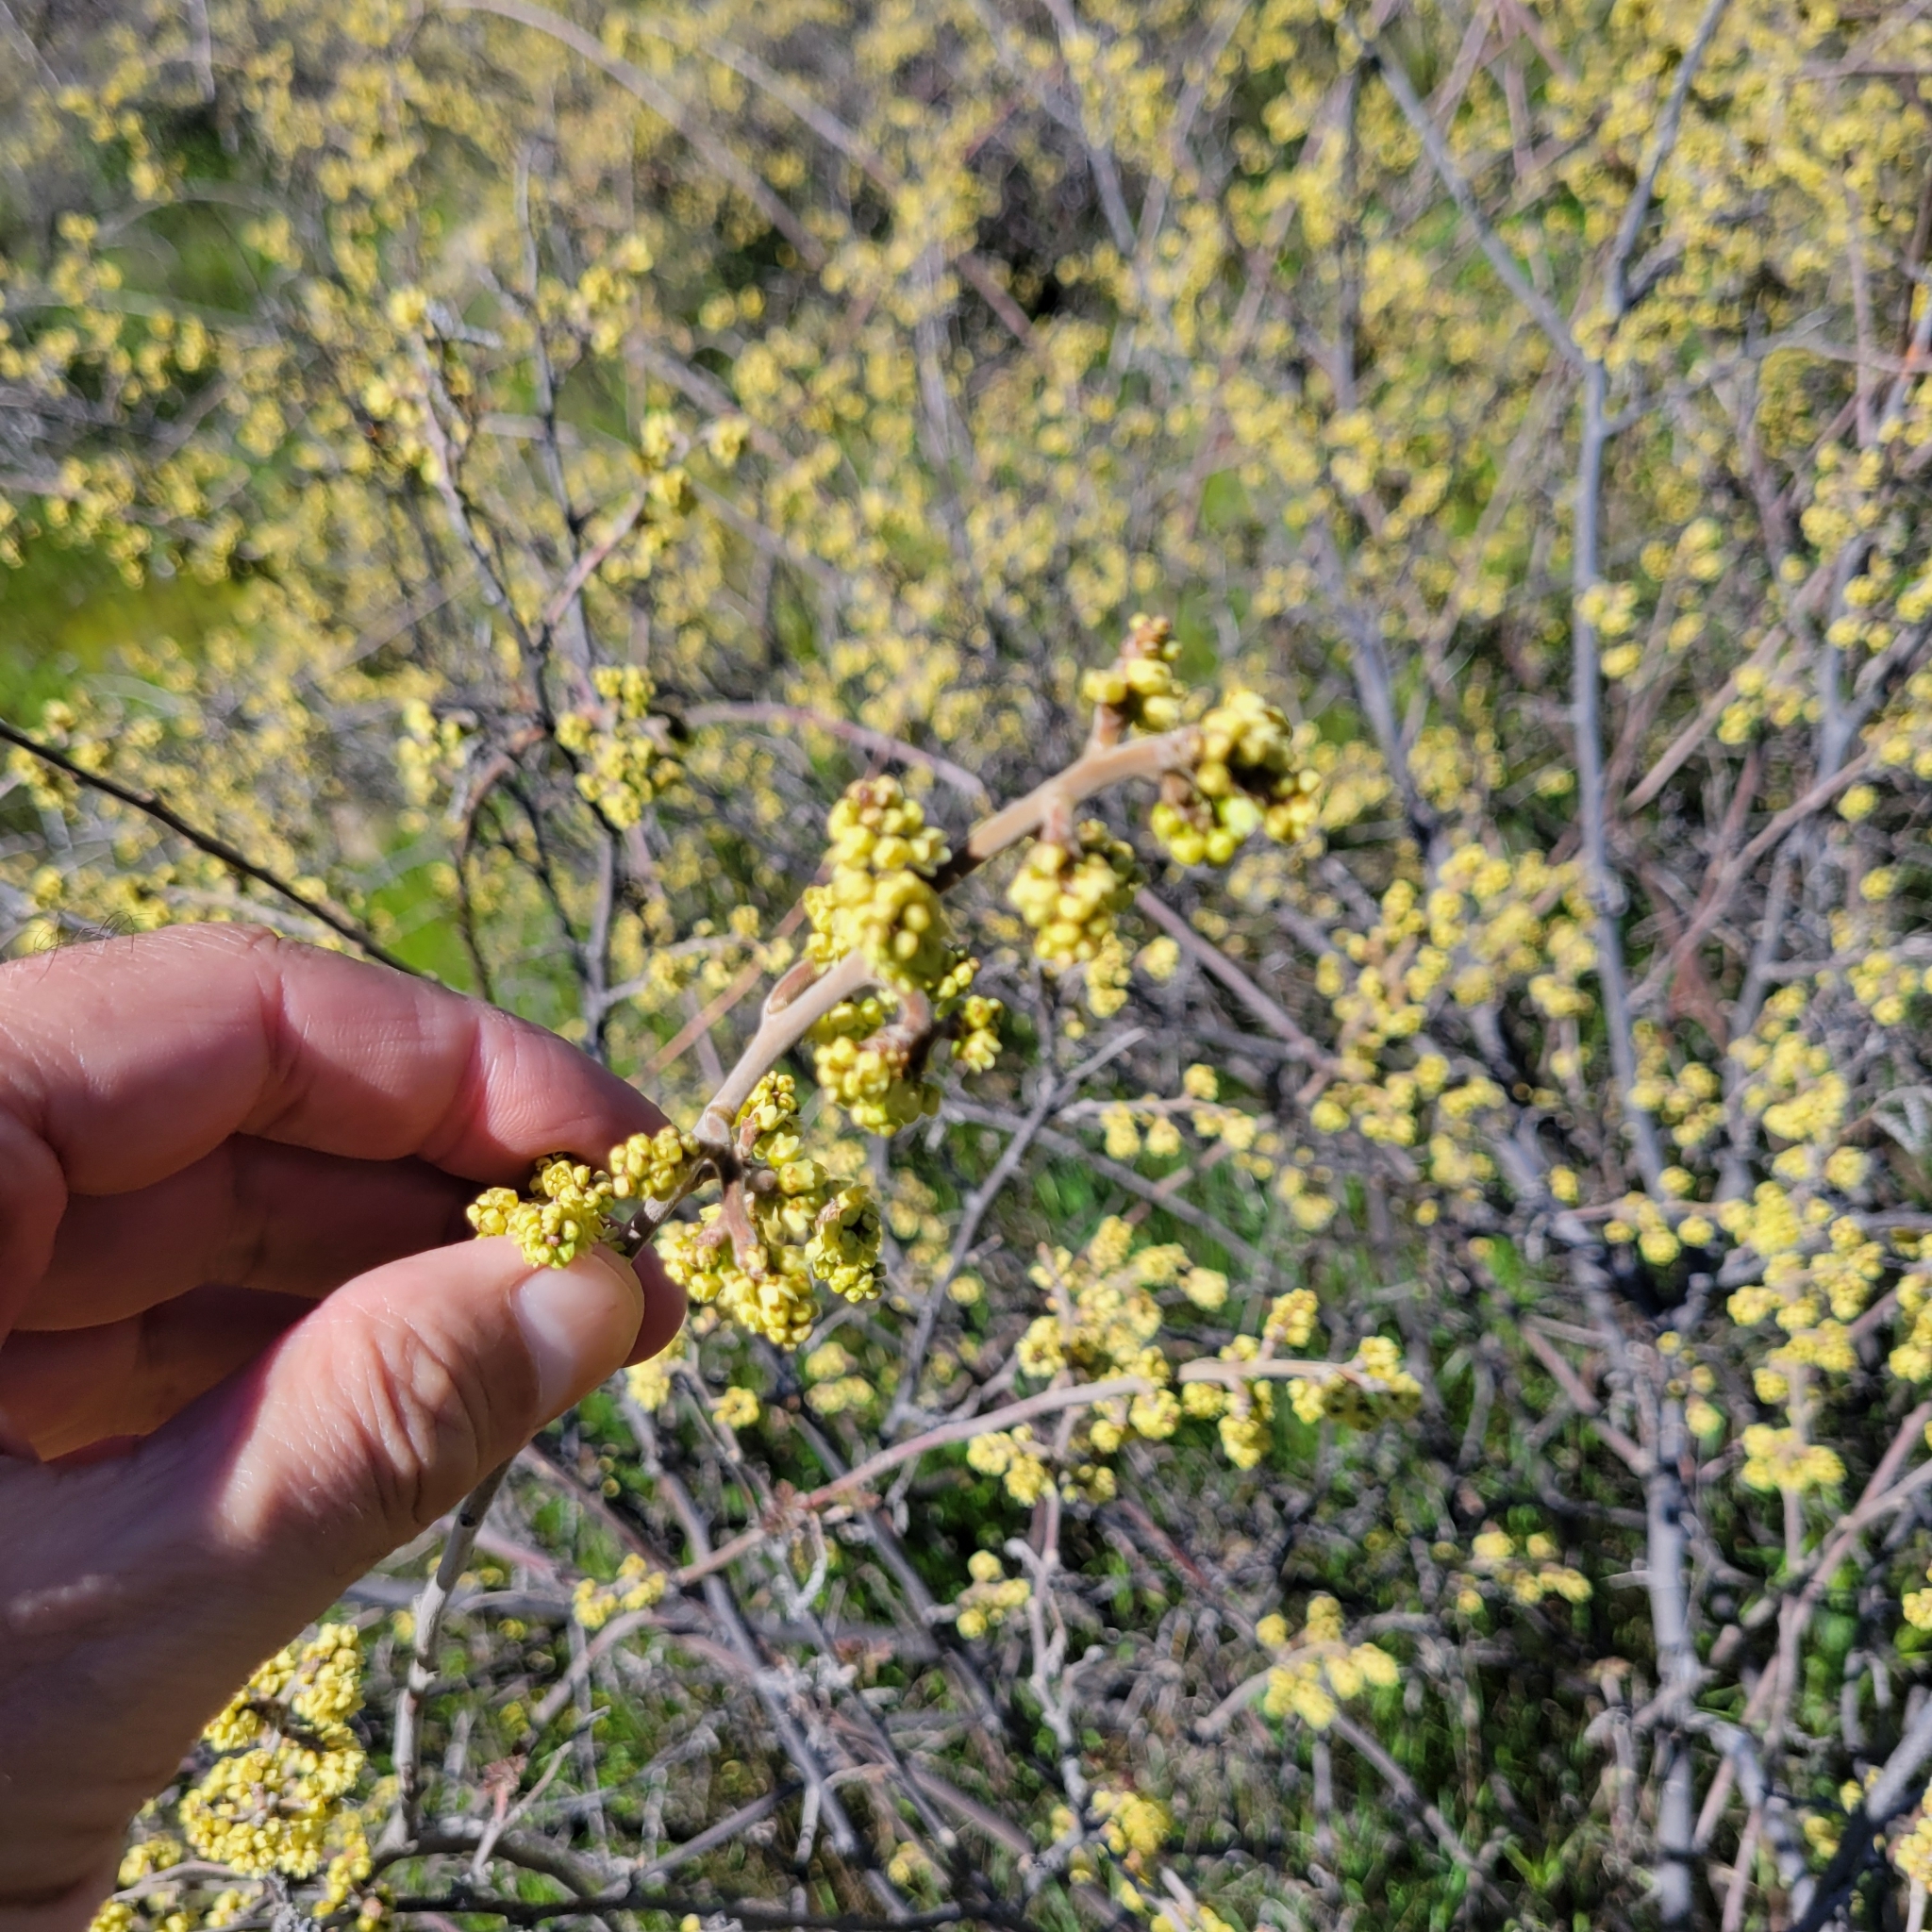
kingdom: Plantae
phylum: Tracheophyta
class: Magnoliopsida
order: Sapindales
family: Anacardiaceae
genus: Rhus
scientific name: Rhus aromatica
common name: Aromatic sumac
